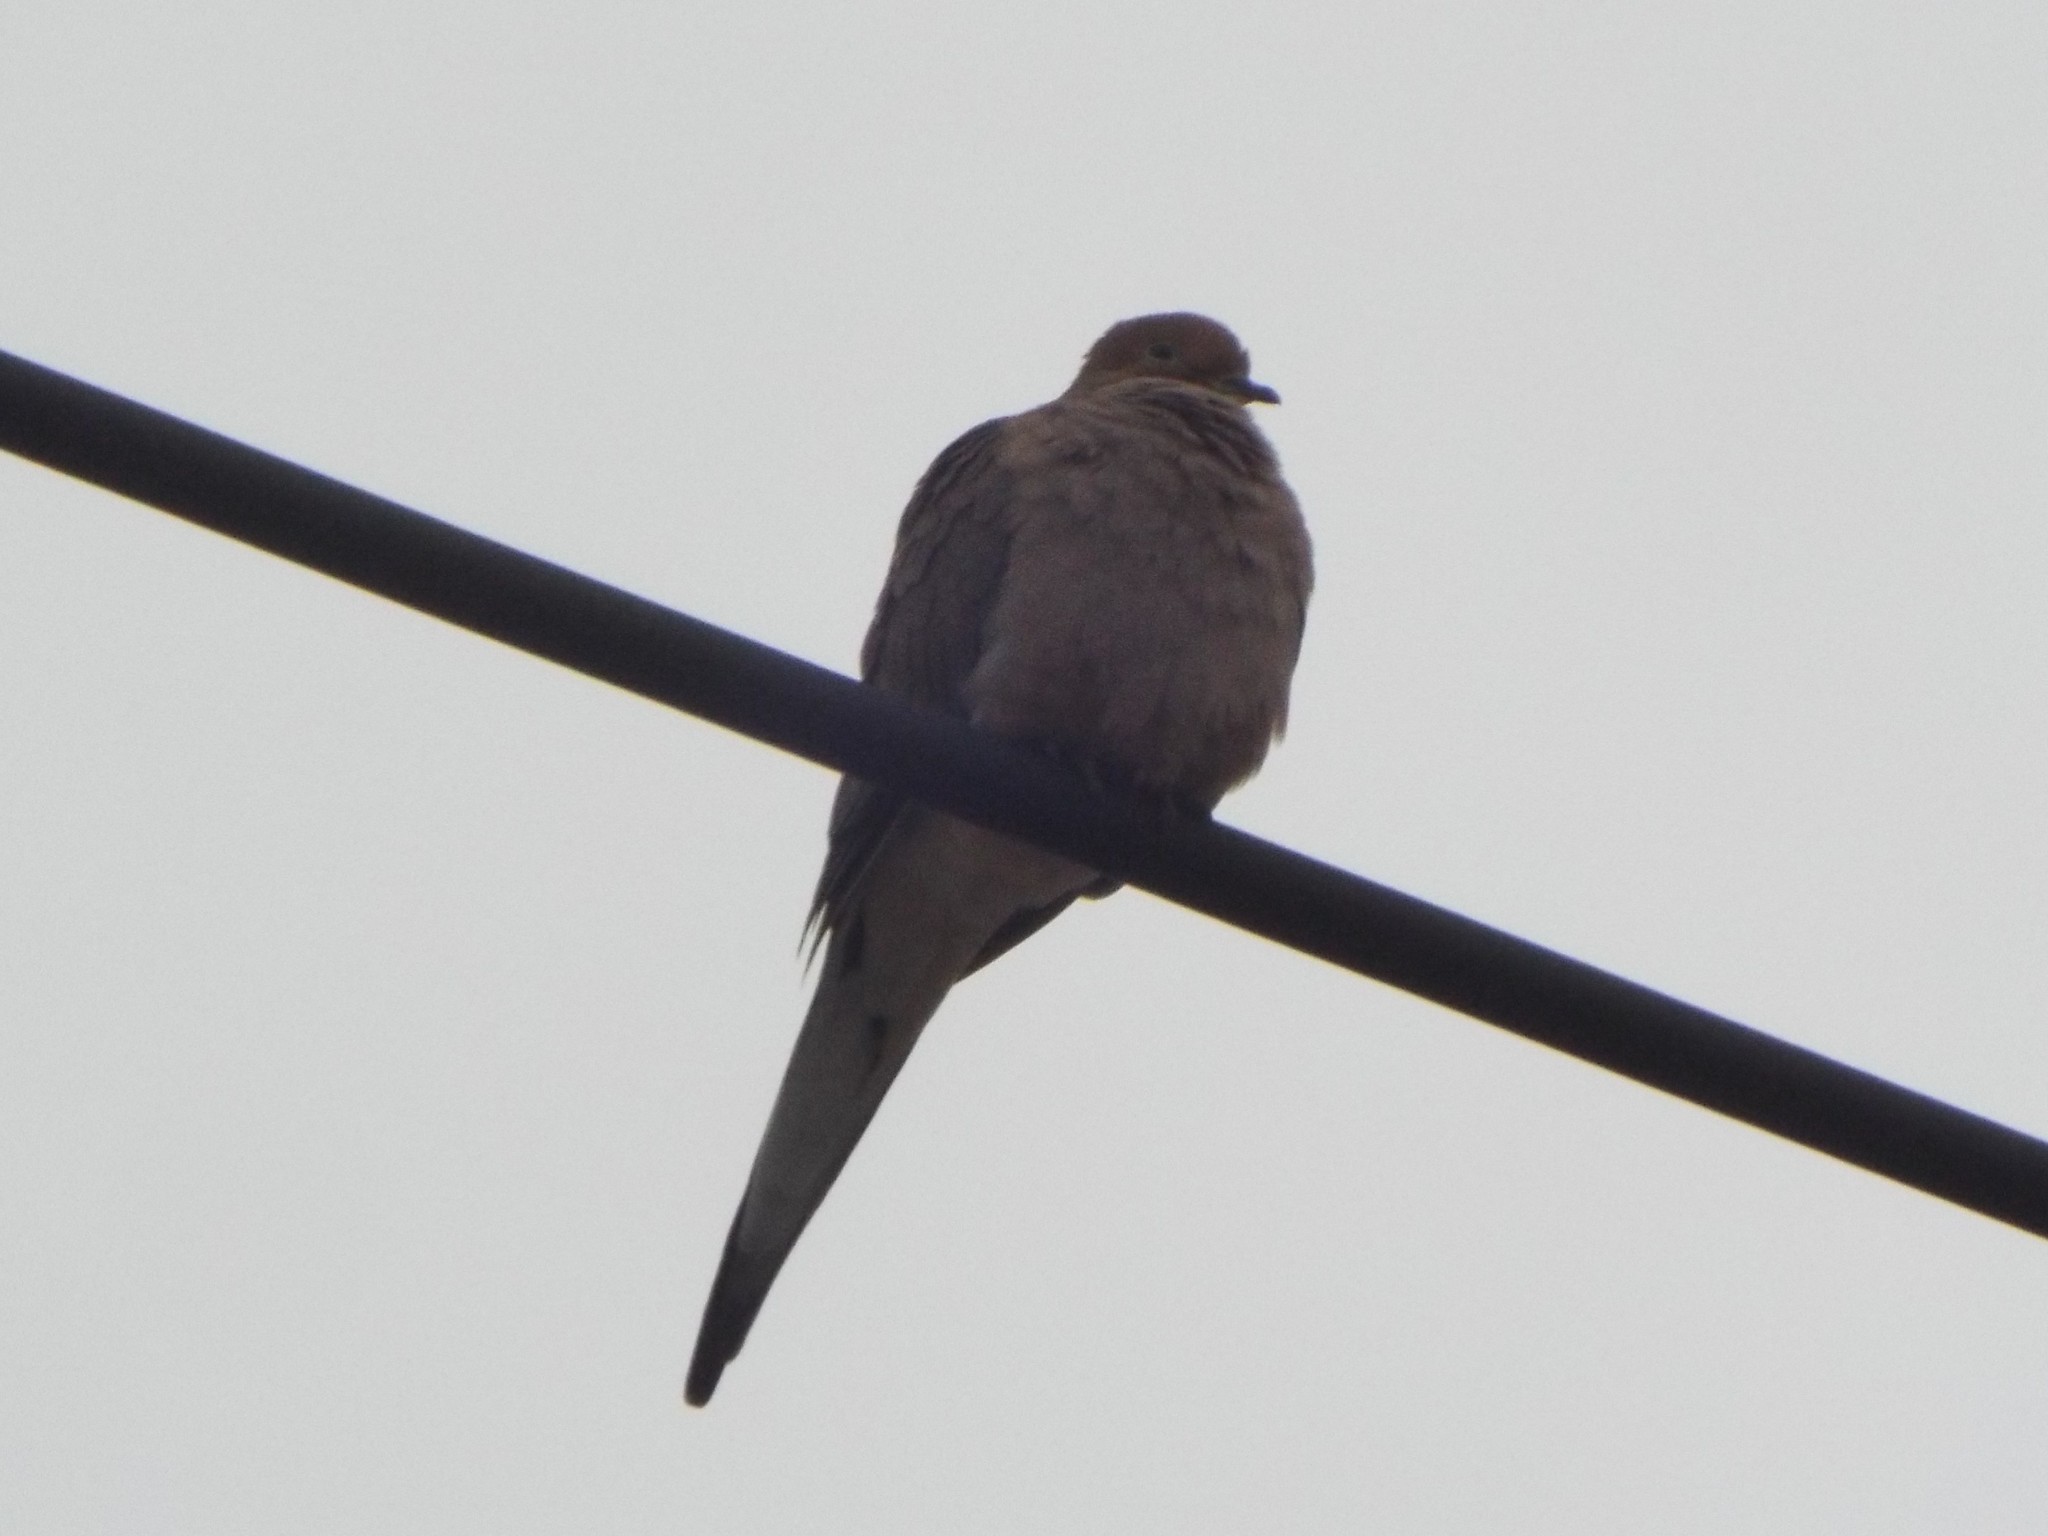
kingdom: Animalia
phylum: Chordata
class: Aves
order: Columbiformes
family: Columbidae
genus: Zenaida
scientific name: Zenaida macroura
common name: Mourning dove
